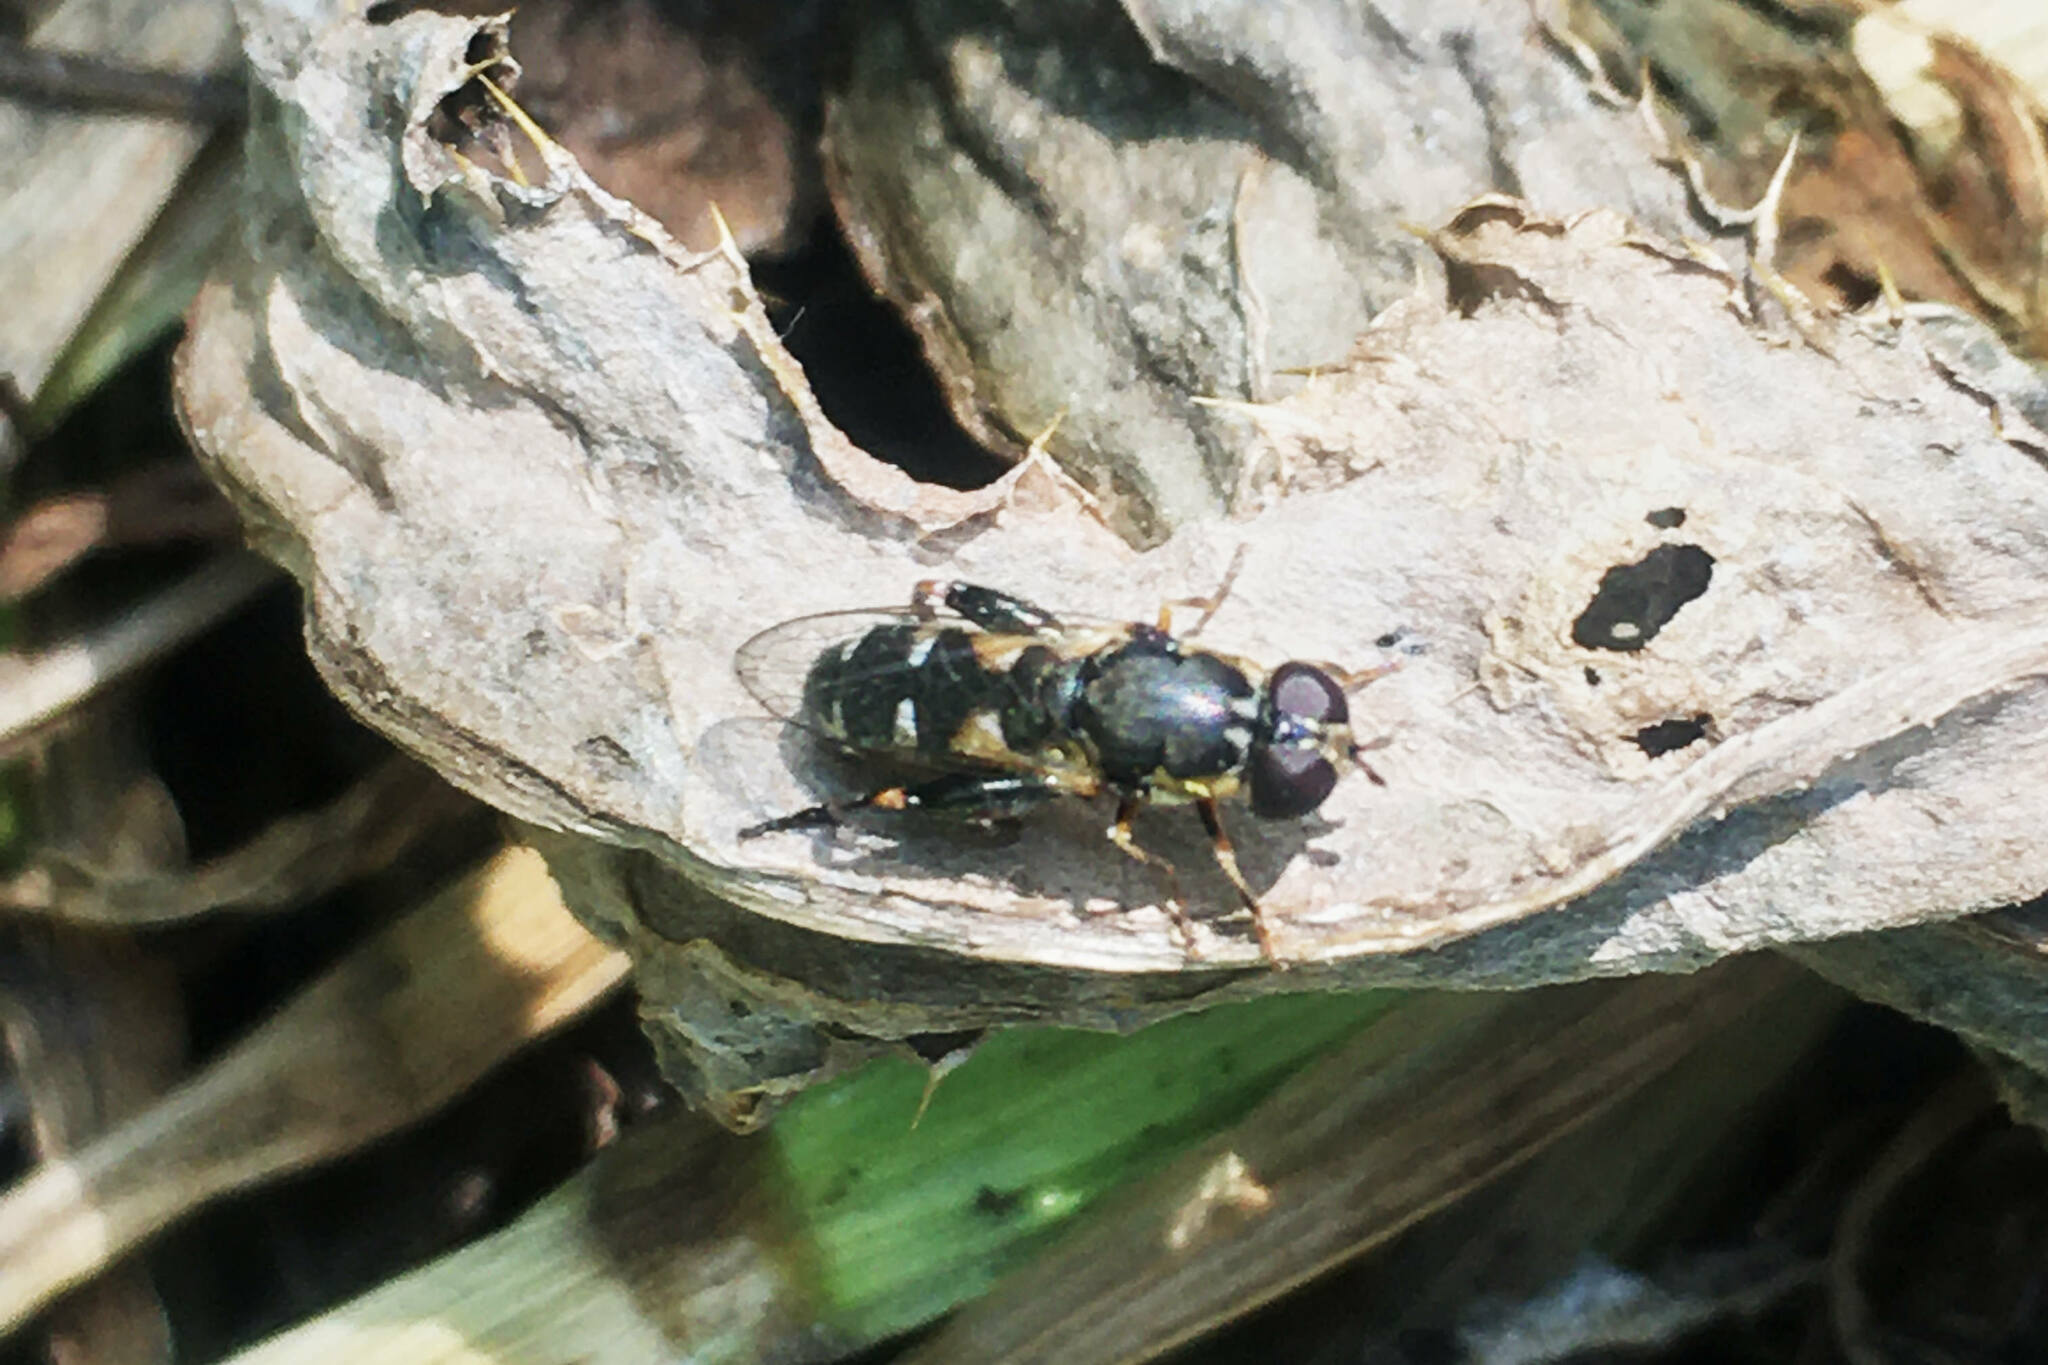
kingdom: Animalia
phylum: Arthropoda
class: Insecta
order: Diptera
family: Syrphidae
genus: Syritta
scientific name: Syritta pipiens
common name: Hover fly
